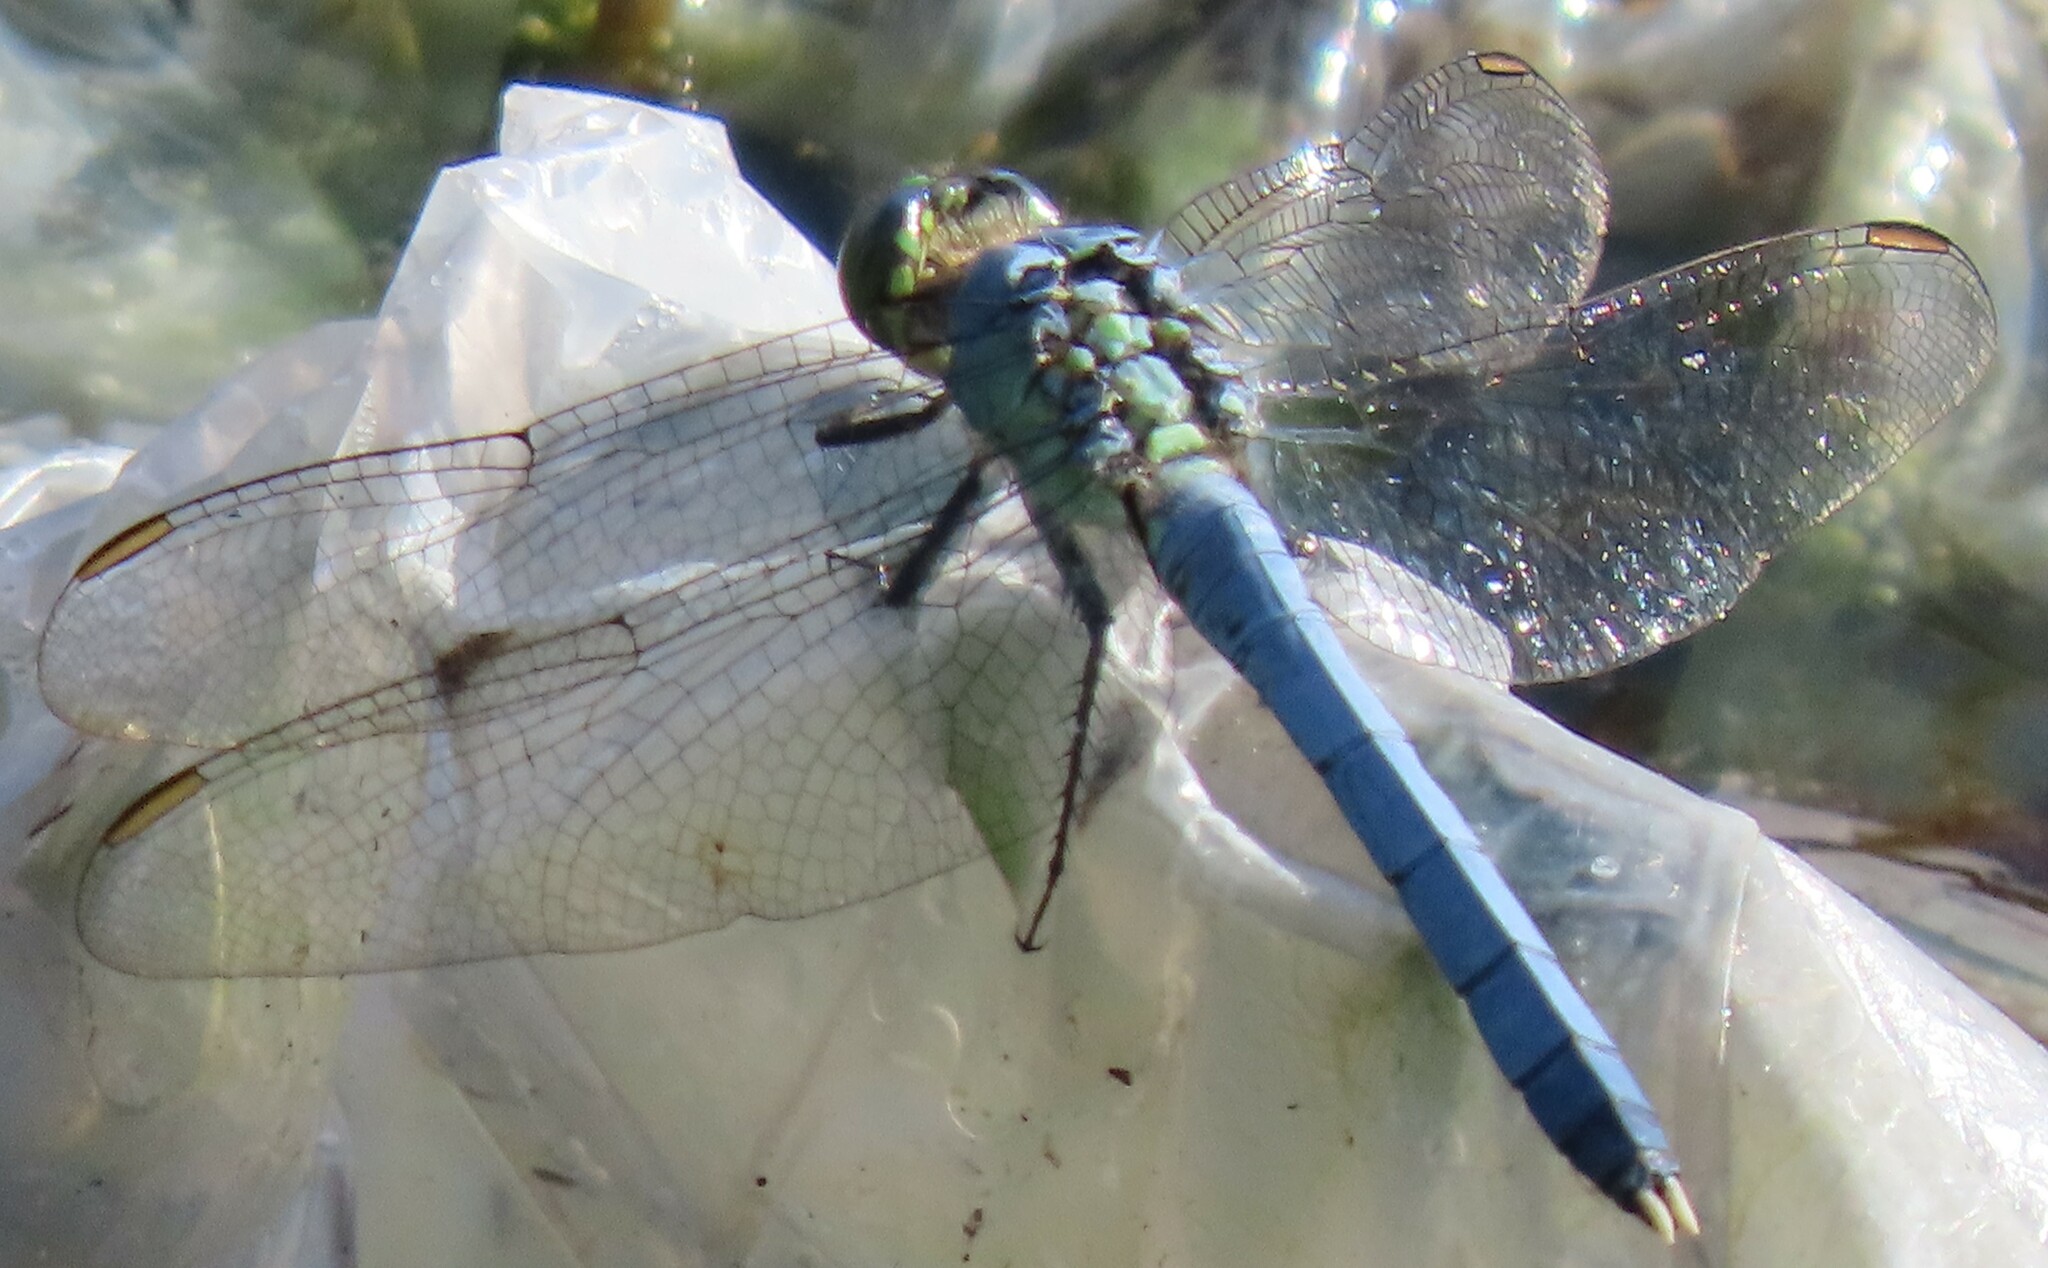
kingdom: Animalia
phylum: Arthropoda
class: Insecta
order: Odonata
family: Libellulidae
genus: Erythemis
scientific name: Erythemis simplicicollis
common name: Eastern pondhawk
